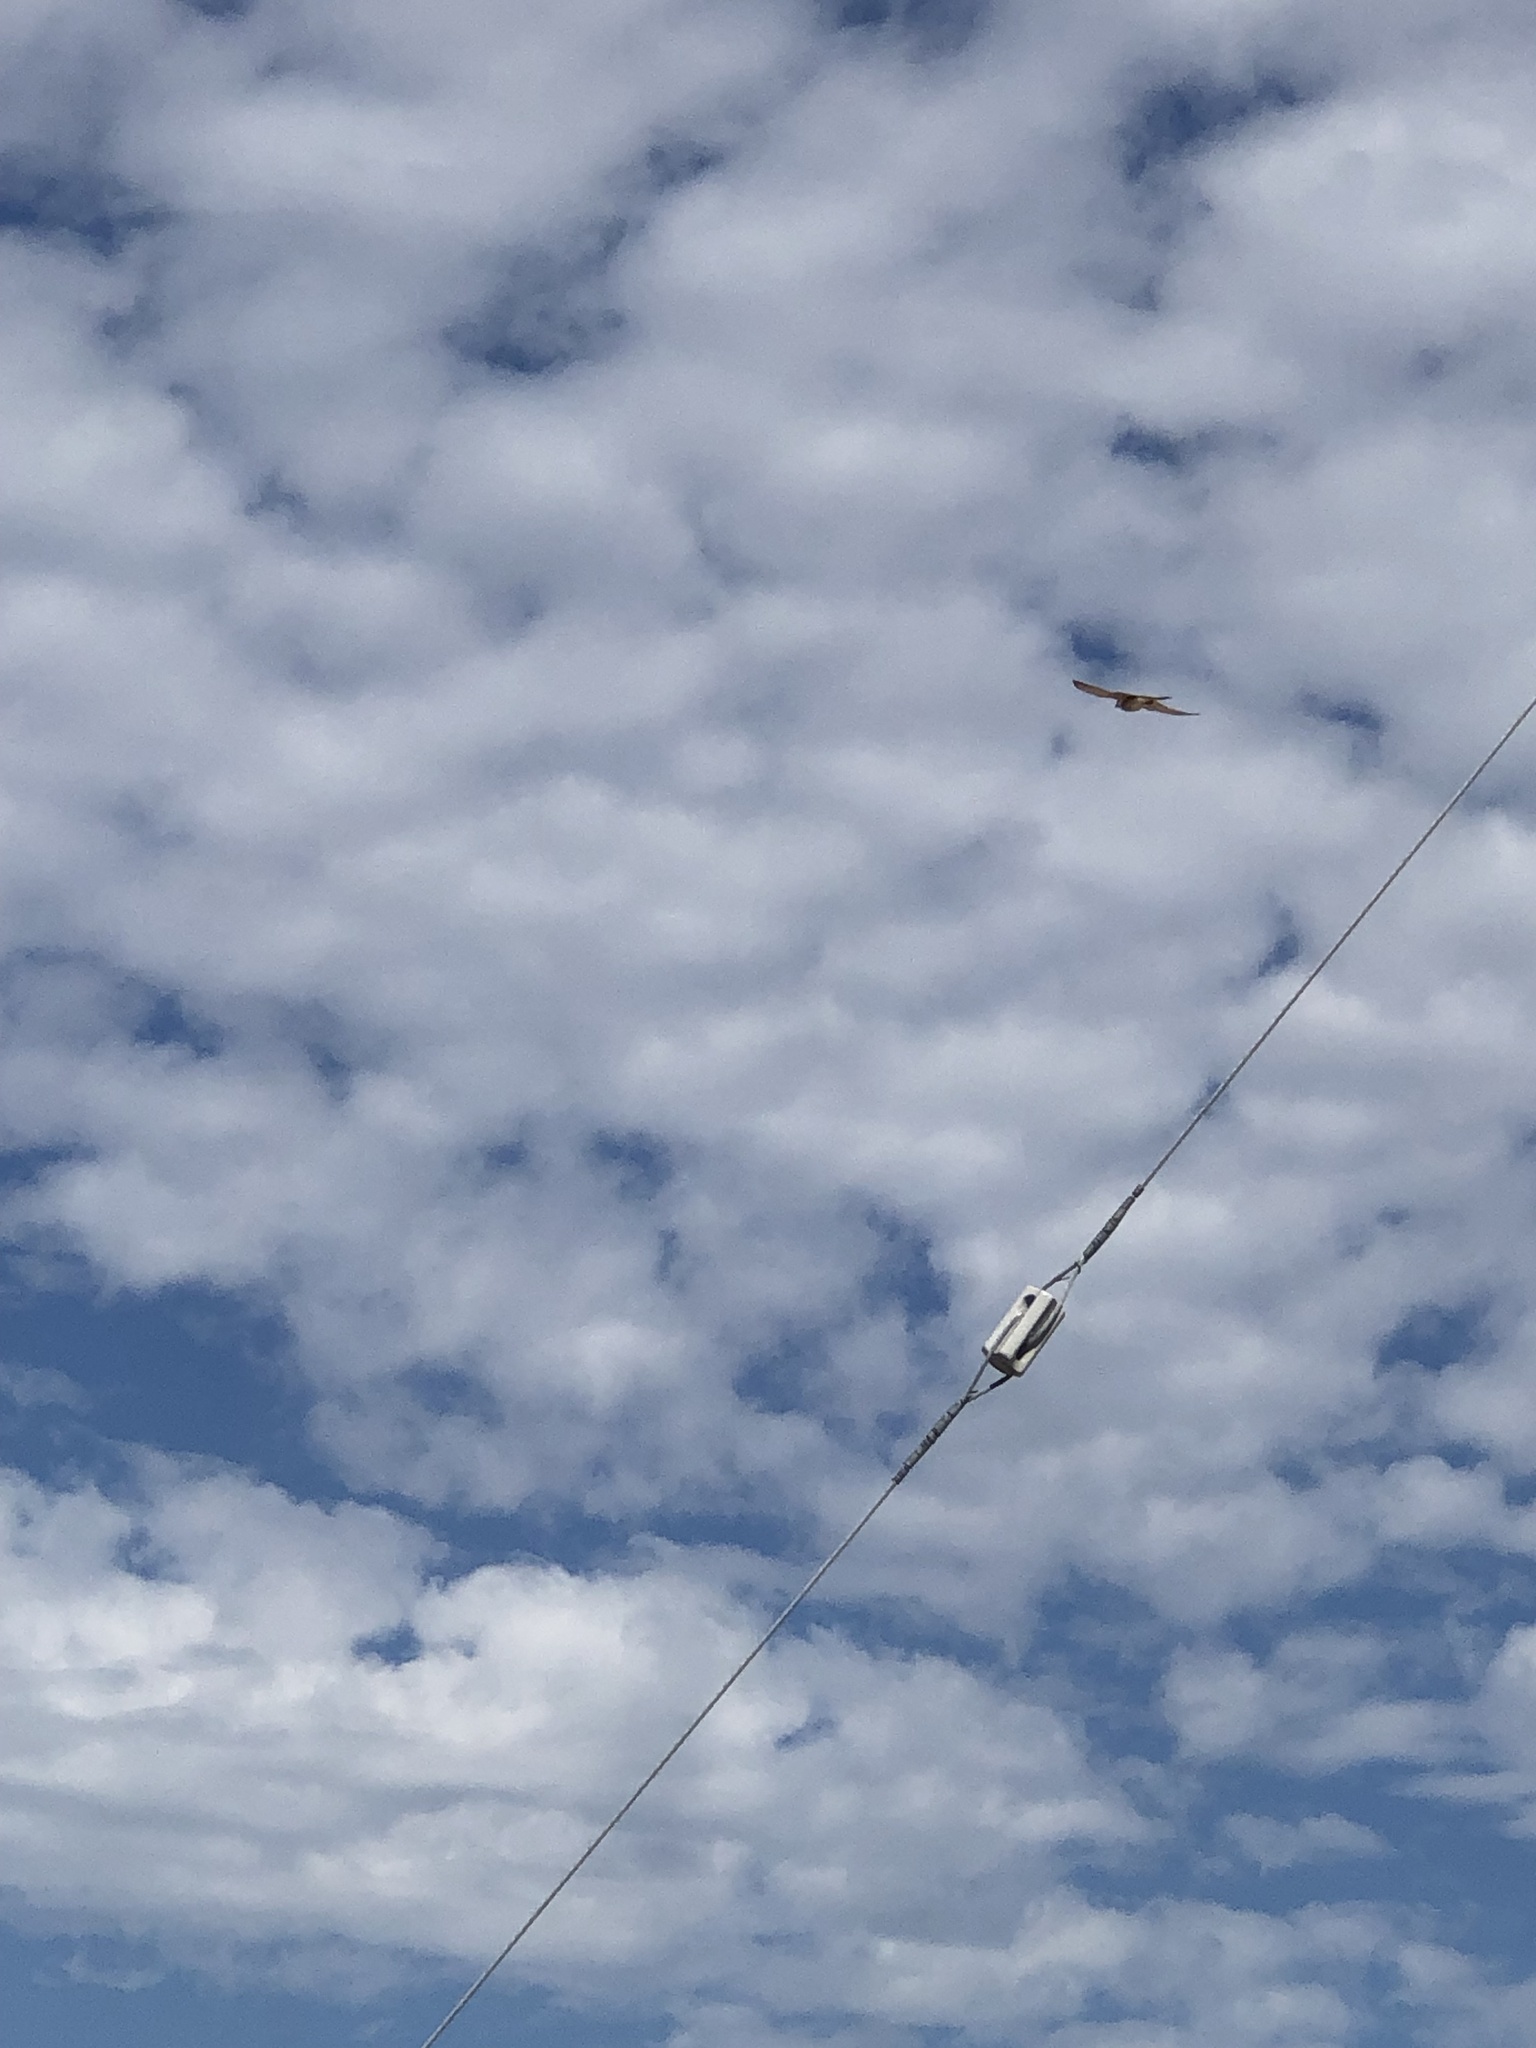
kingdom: Animalia
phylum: Chordata
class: Aves
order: Falconiformes
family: Falconidae
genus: Falco
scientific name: Falco sparverius
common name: American kestrel
